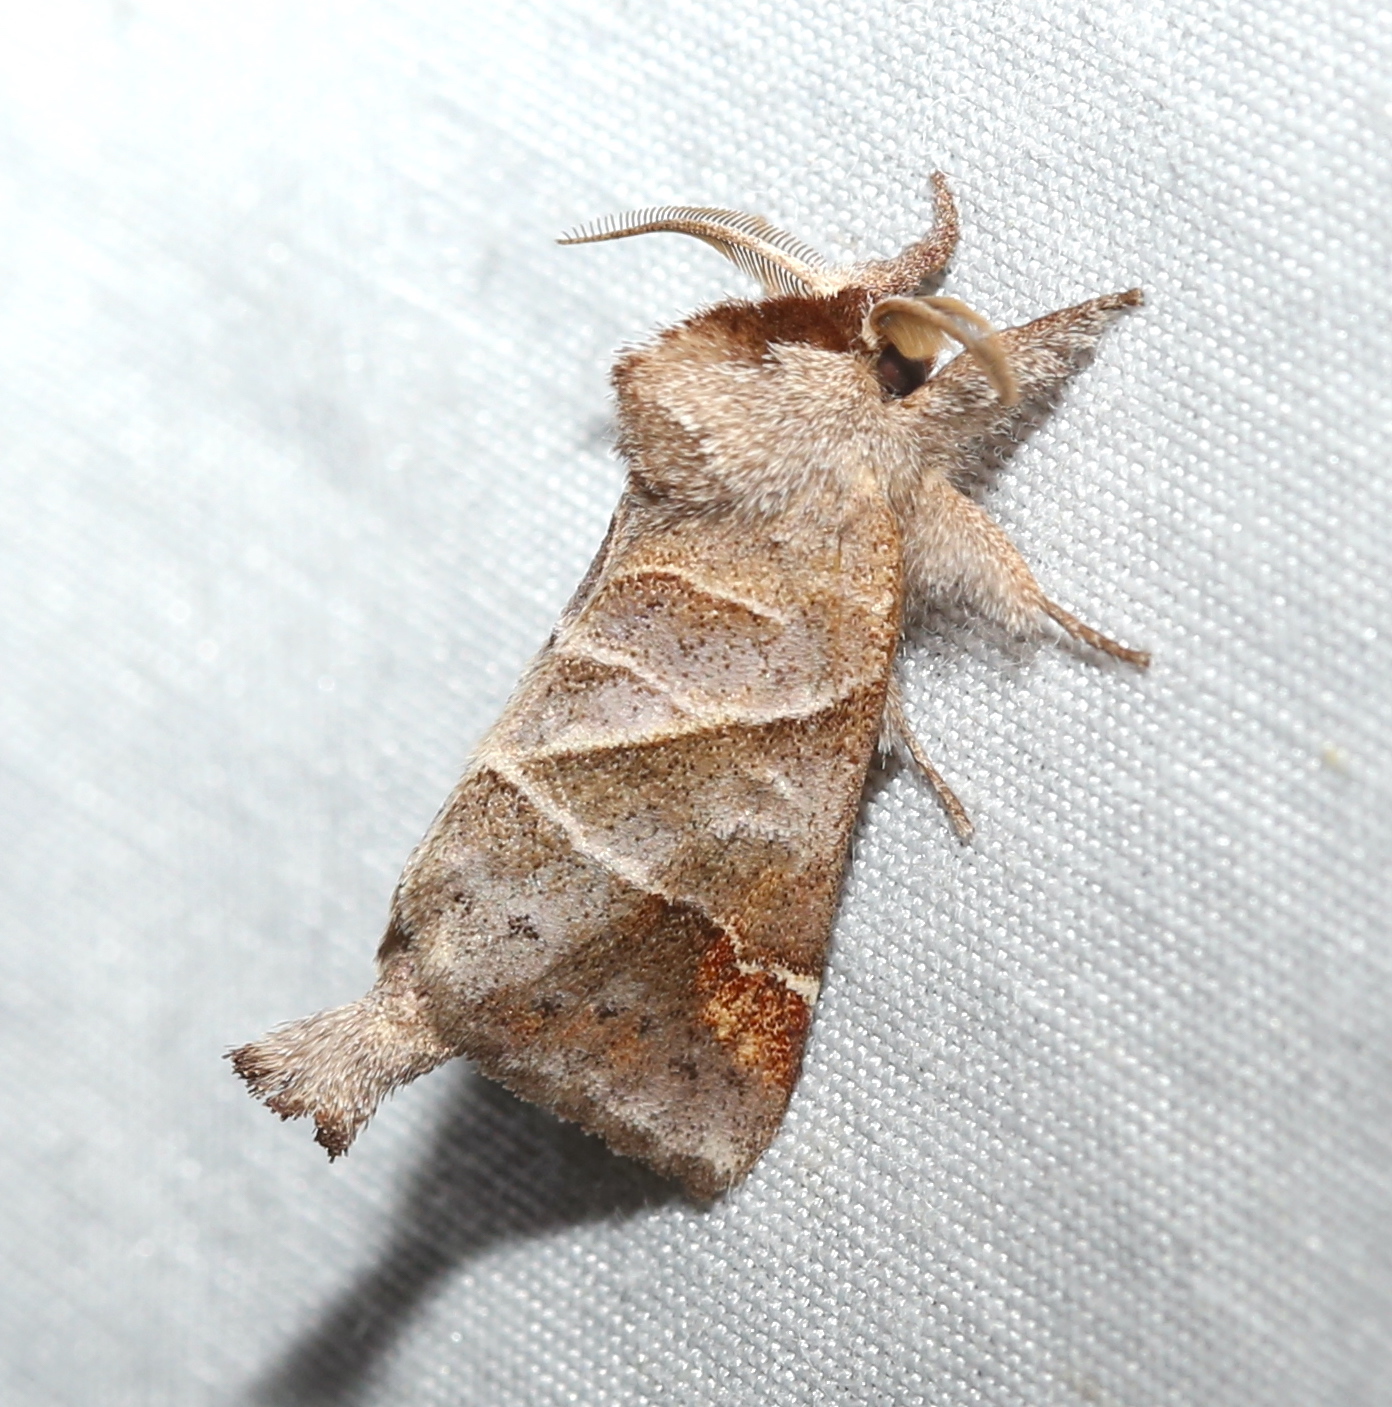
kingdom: Animalia
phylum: Arthropoda
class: Insecta
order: Lepidoptera
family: Notodontidae
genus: Clostera
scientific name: Clostera inclusa
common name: Angle-lined prominent
